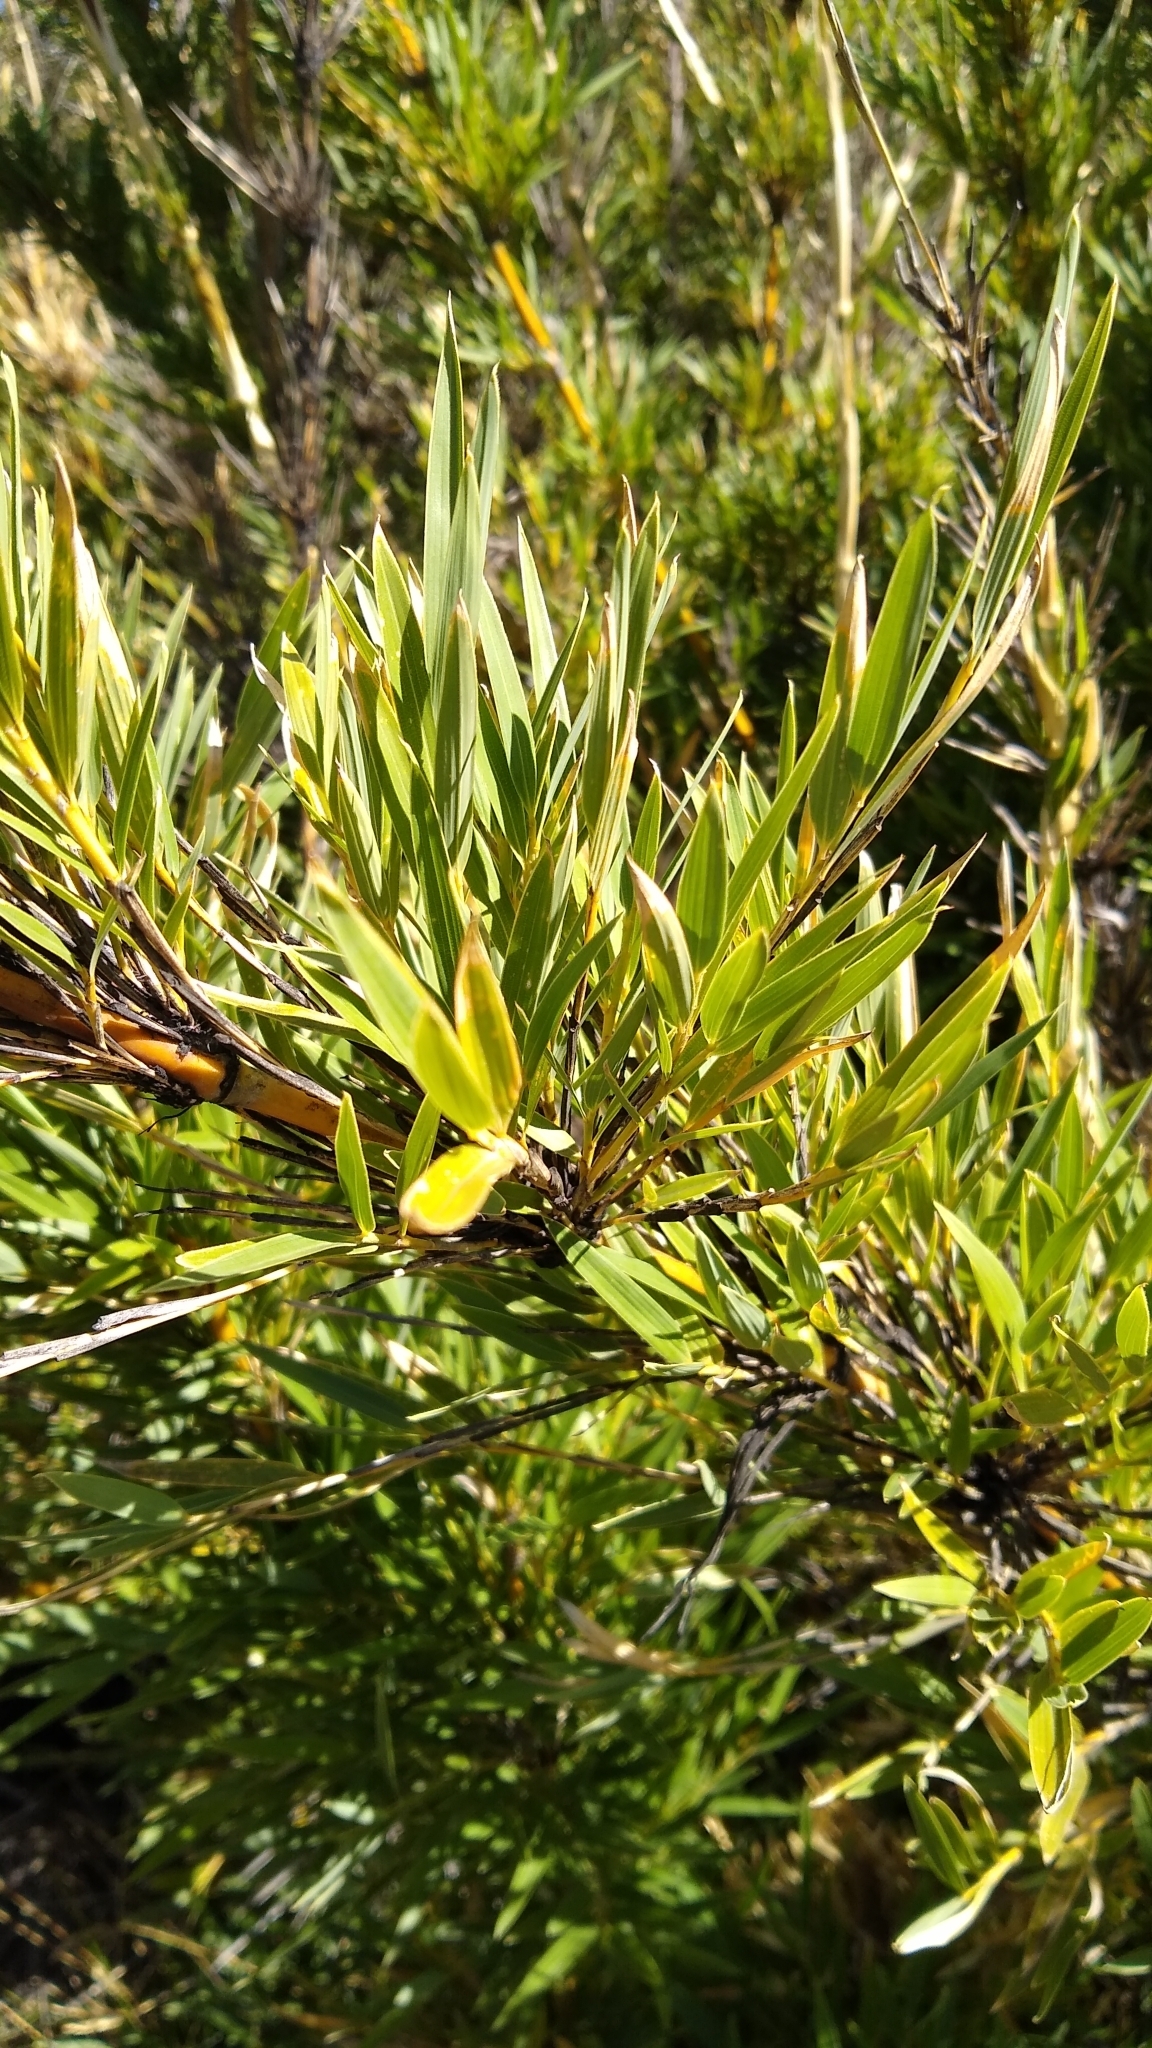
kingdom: Plantae
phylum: Tracheophyta
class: Liliopsida
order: Poales
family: Poaceae
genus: Chusquea
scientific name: Chusquea culeou
